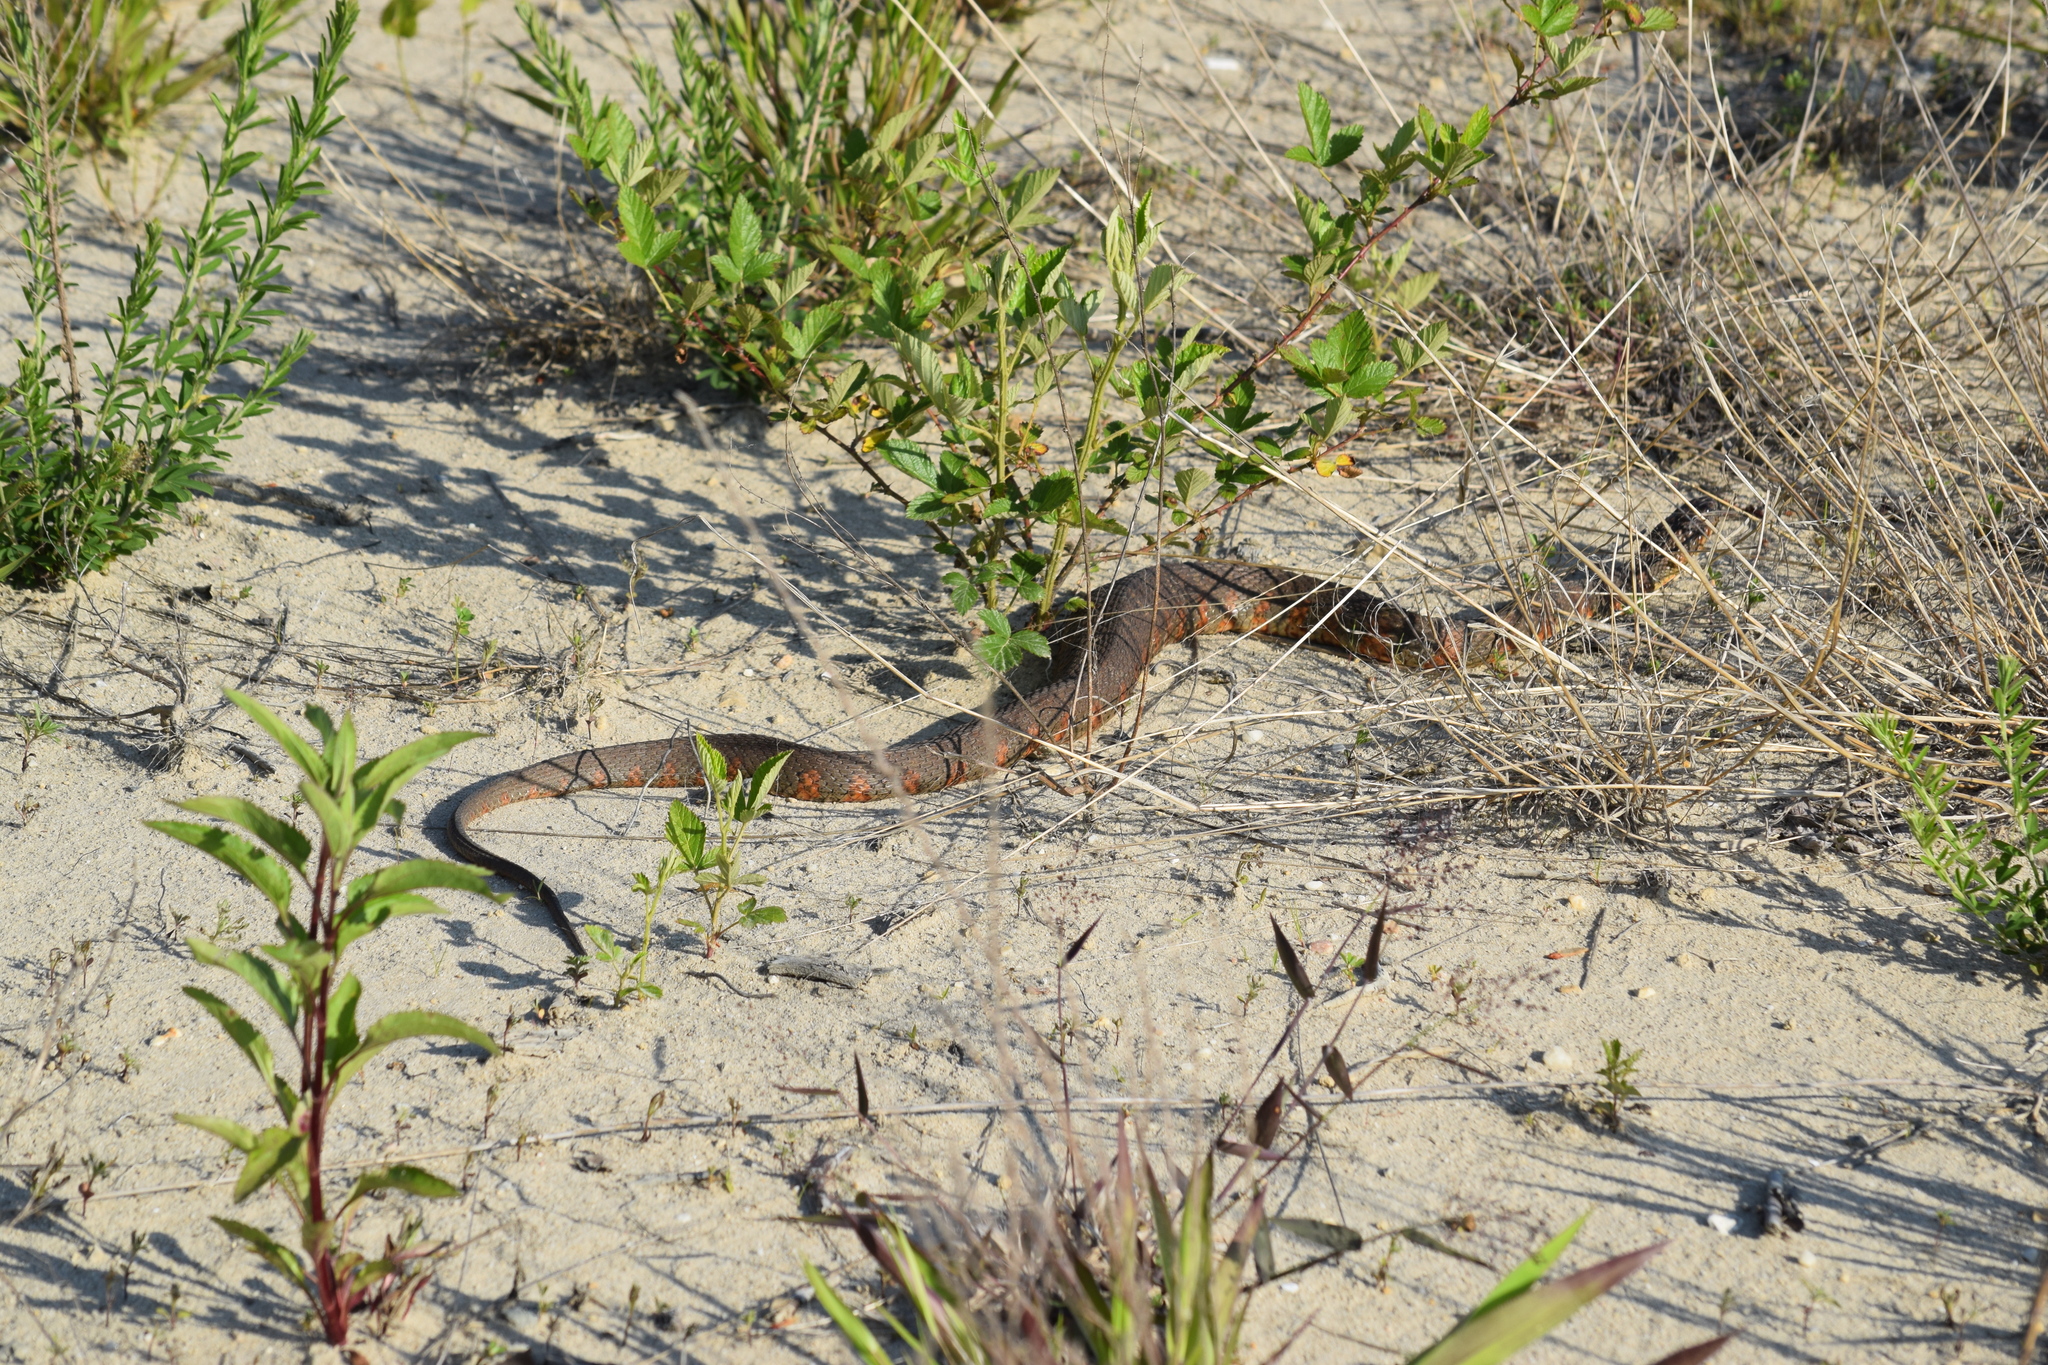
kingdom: Animalia
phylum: Chordata
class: Squamata
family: Colubridae
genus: Nerodia
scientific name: Nerodia sipedon
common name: Northern water snake
